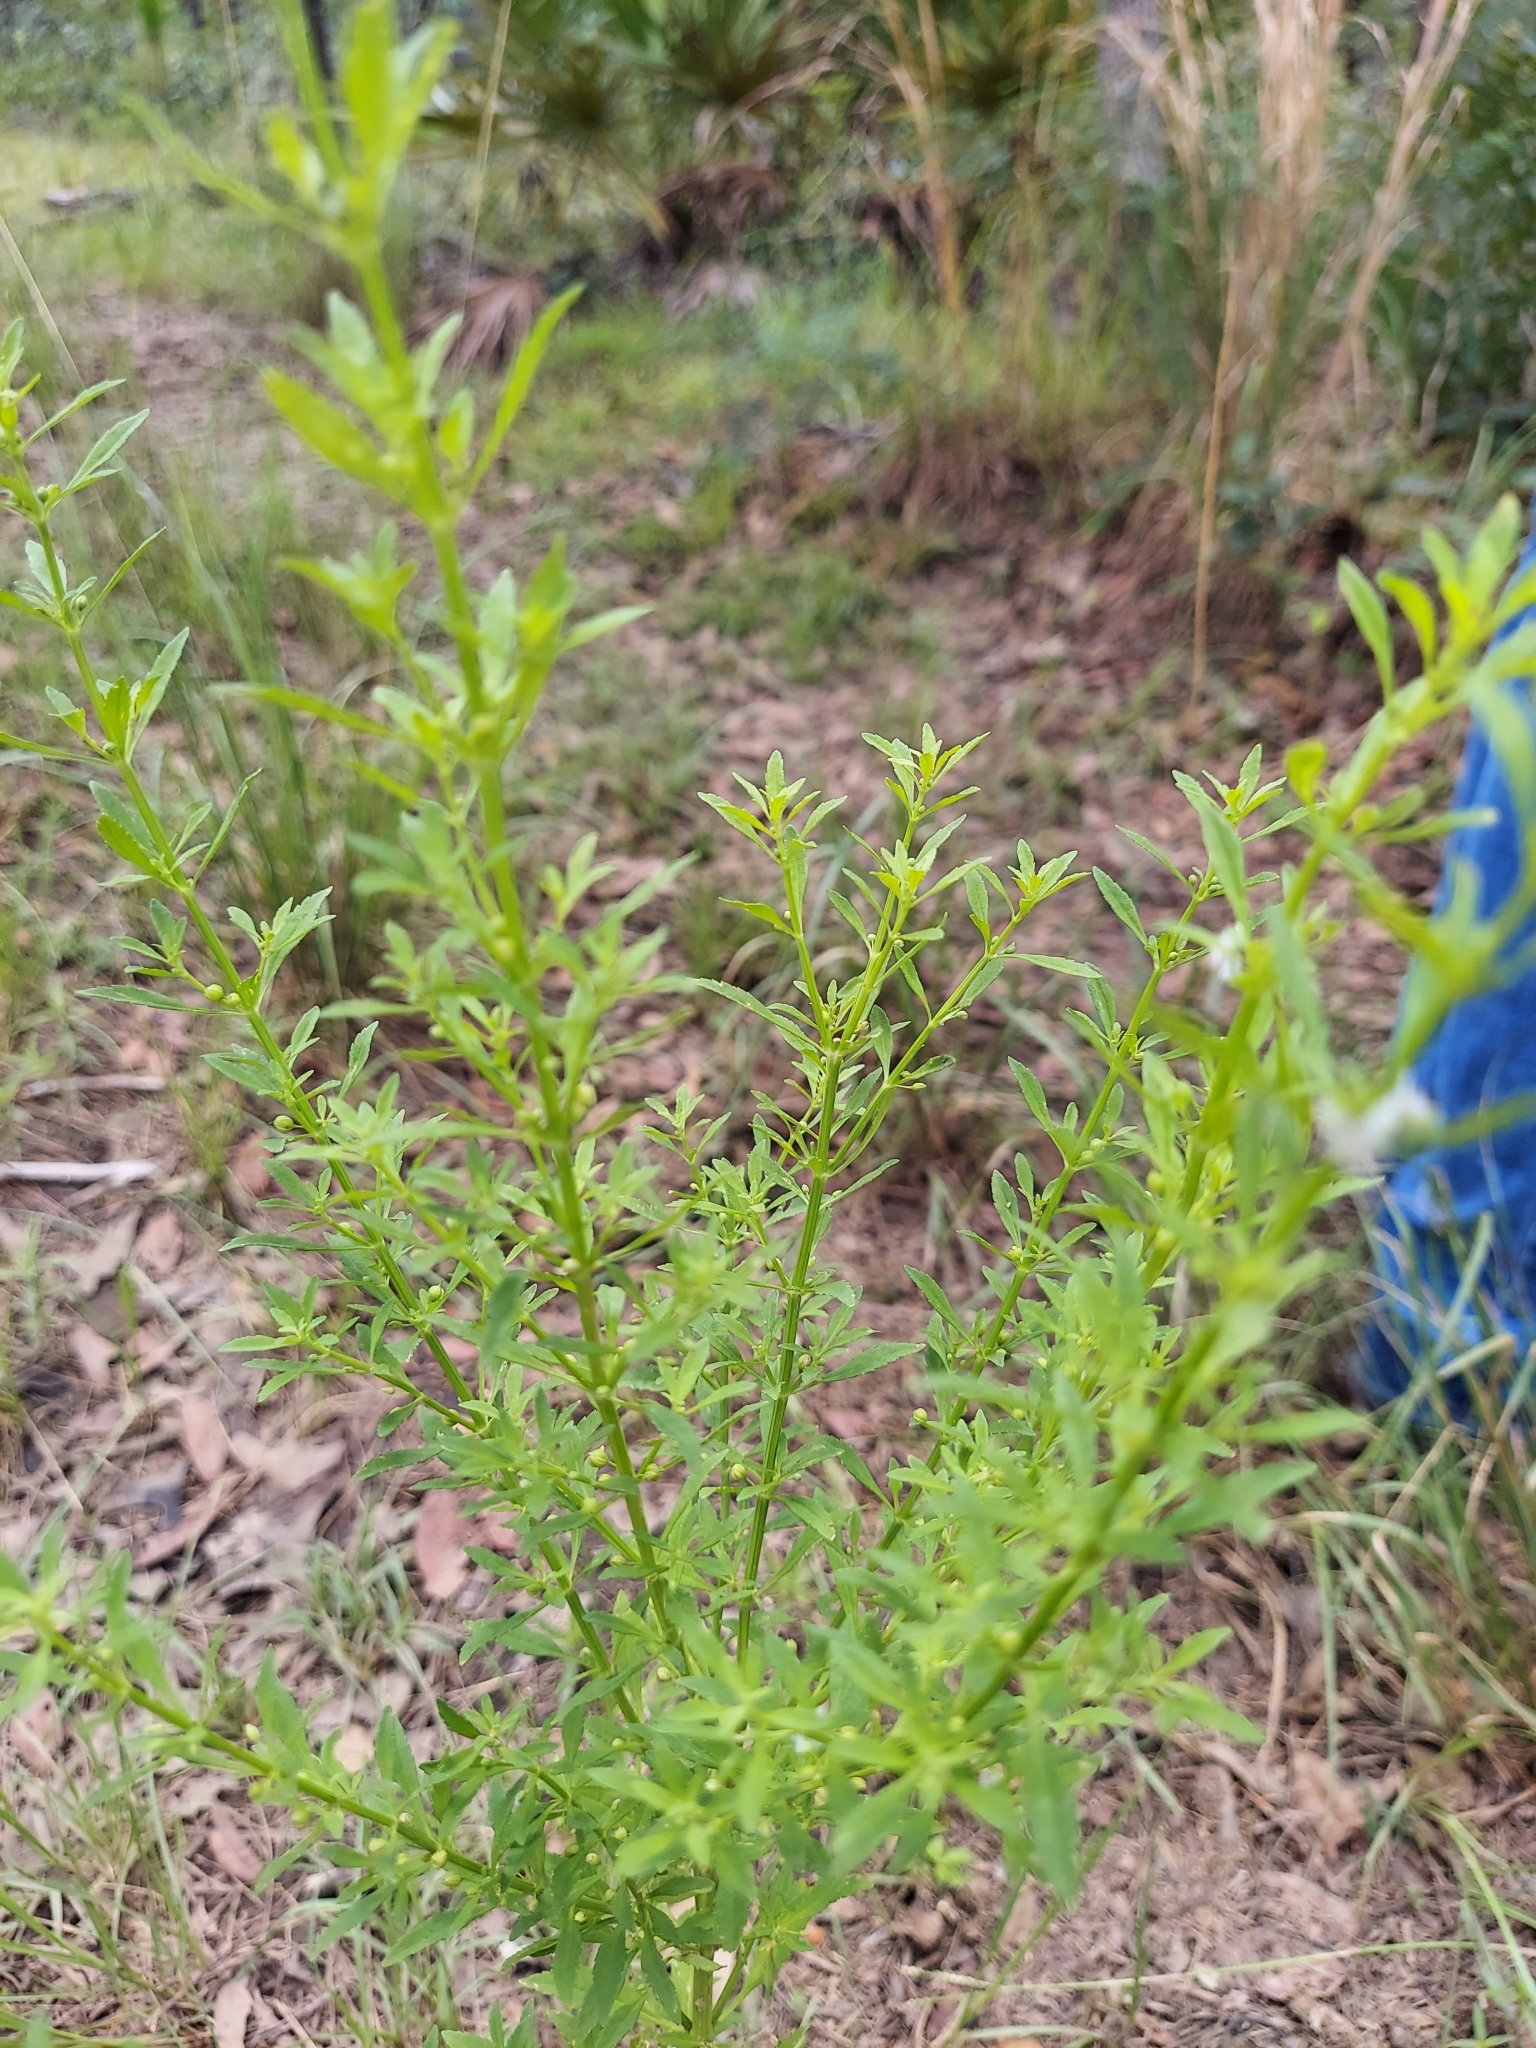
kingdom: Plantae
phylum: Tracheophyta
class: Magnoliopsida
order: Lamiales
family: Plantaginaceae
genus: Scoparia
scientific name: Scoparia dulcis
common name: Scoparia-weed
